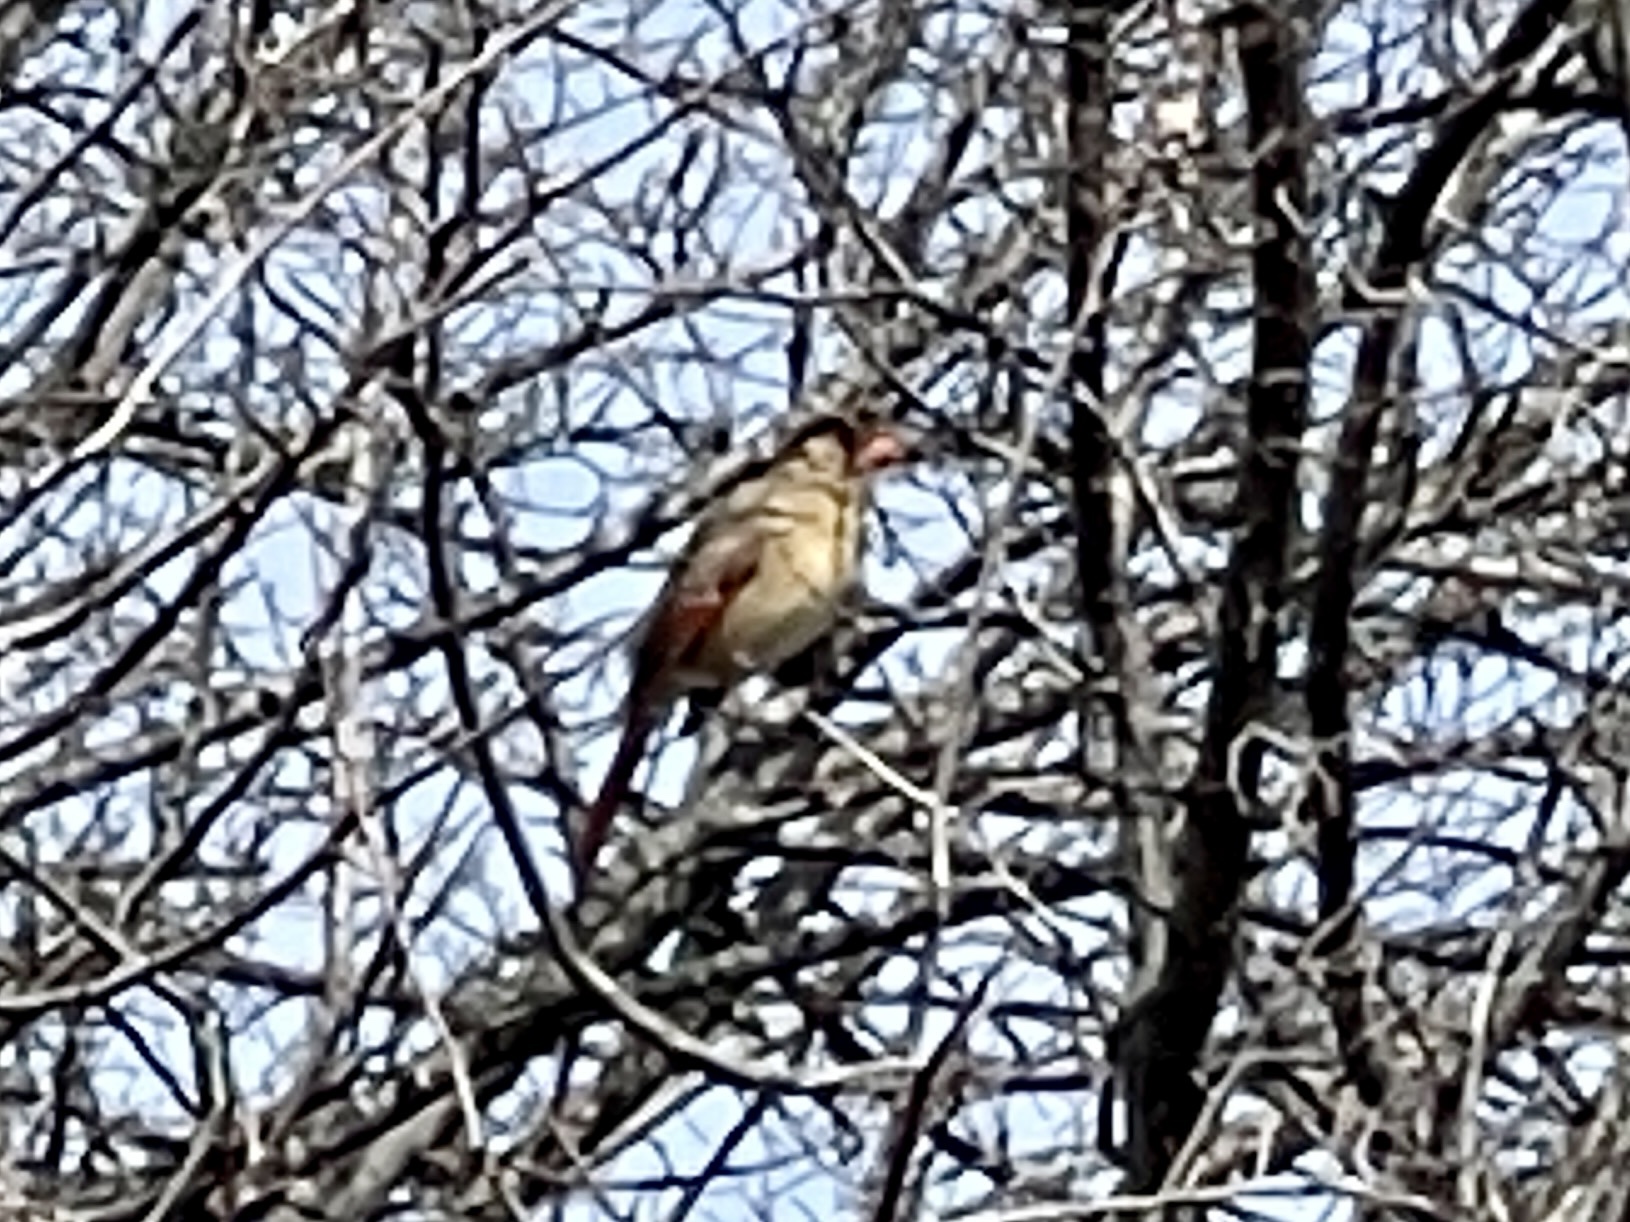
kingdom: Animalia
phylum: Chordata
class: Aves
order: Passeriformes
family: Cardinalidae
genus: Cardinalis
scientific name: Cardinalis cardinalis
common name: Northern cardinal
